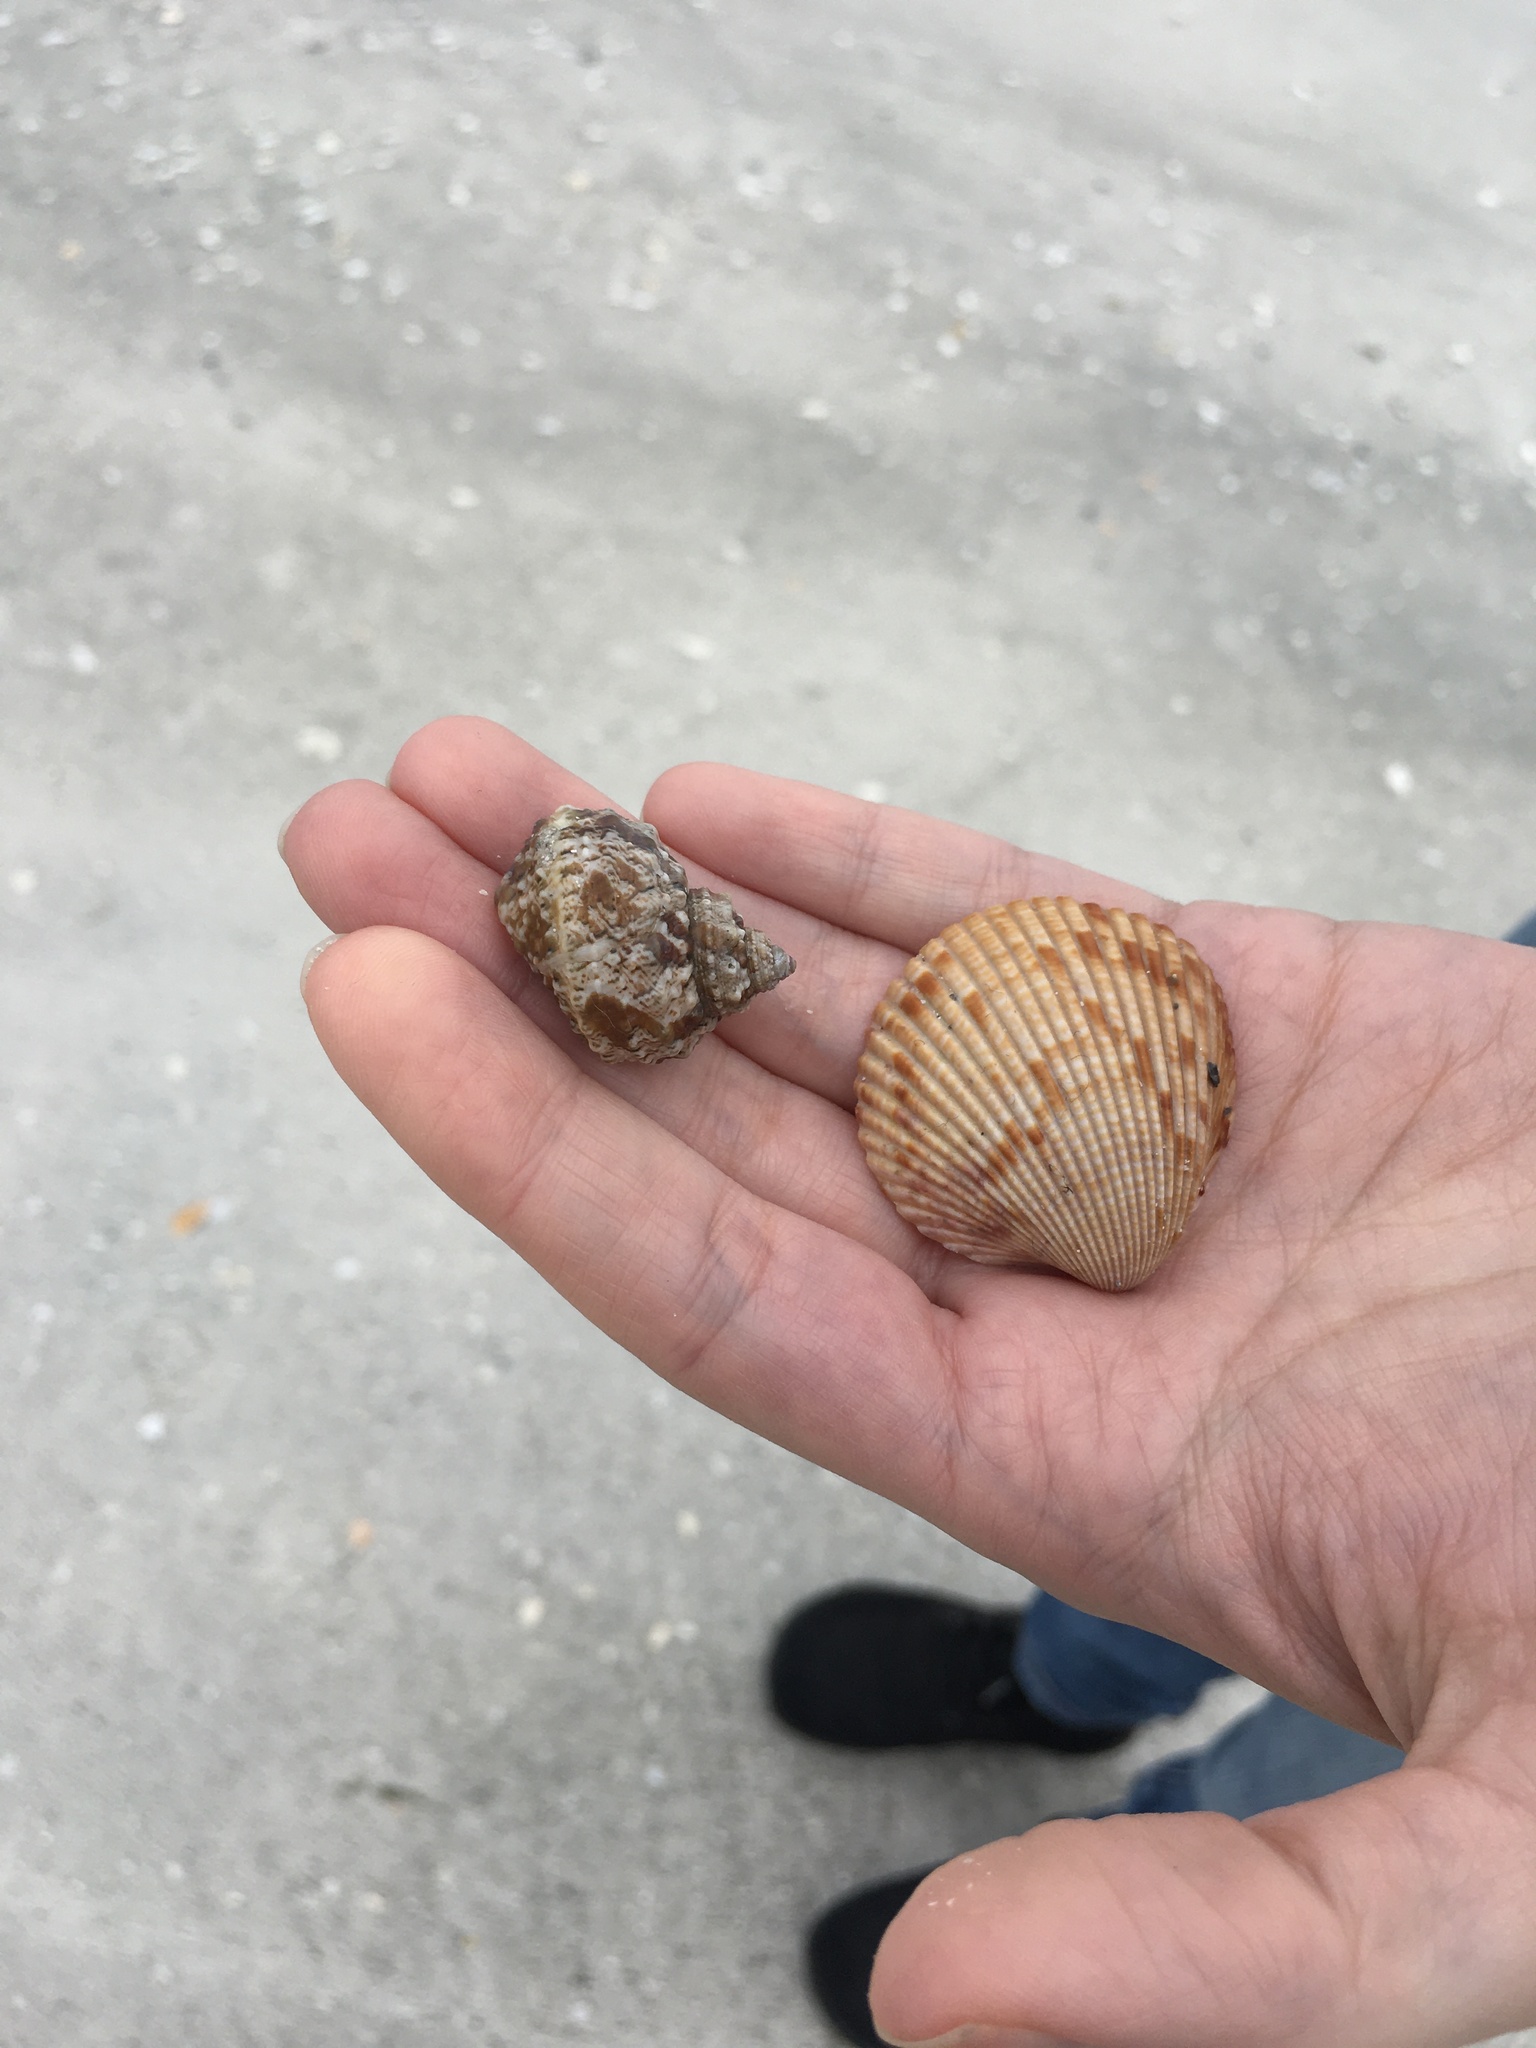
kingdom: Animalia
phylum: Mollusca
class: Gastropoda
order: Trochida
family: Turbinidae
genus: Turbo
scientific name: Turbo castanea
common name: Chestnut turban
